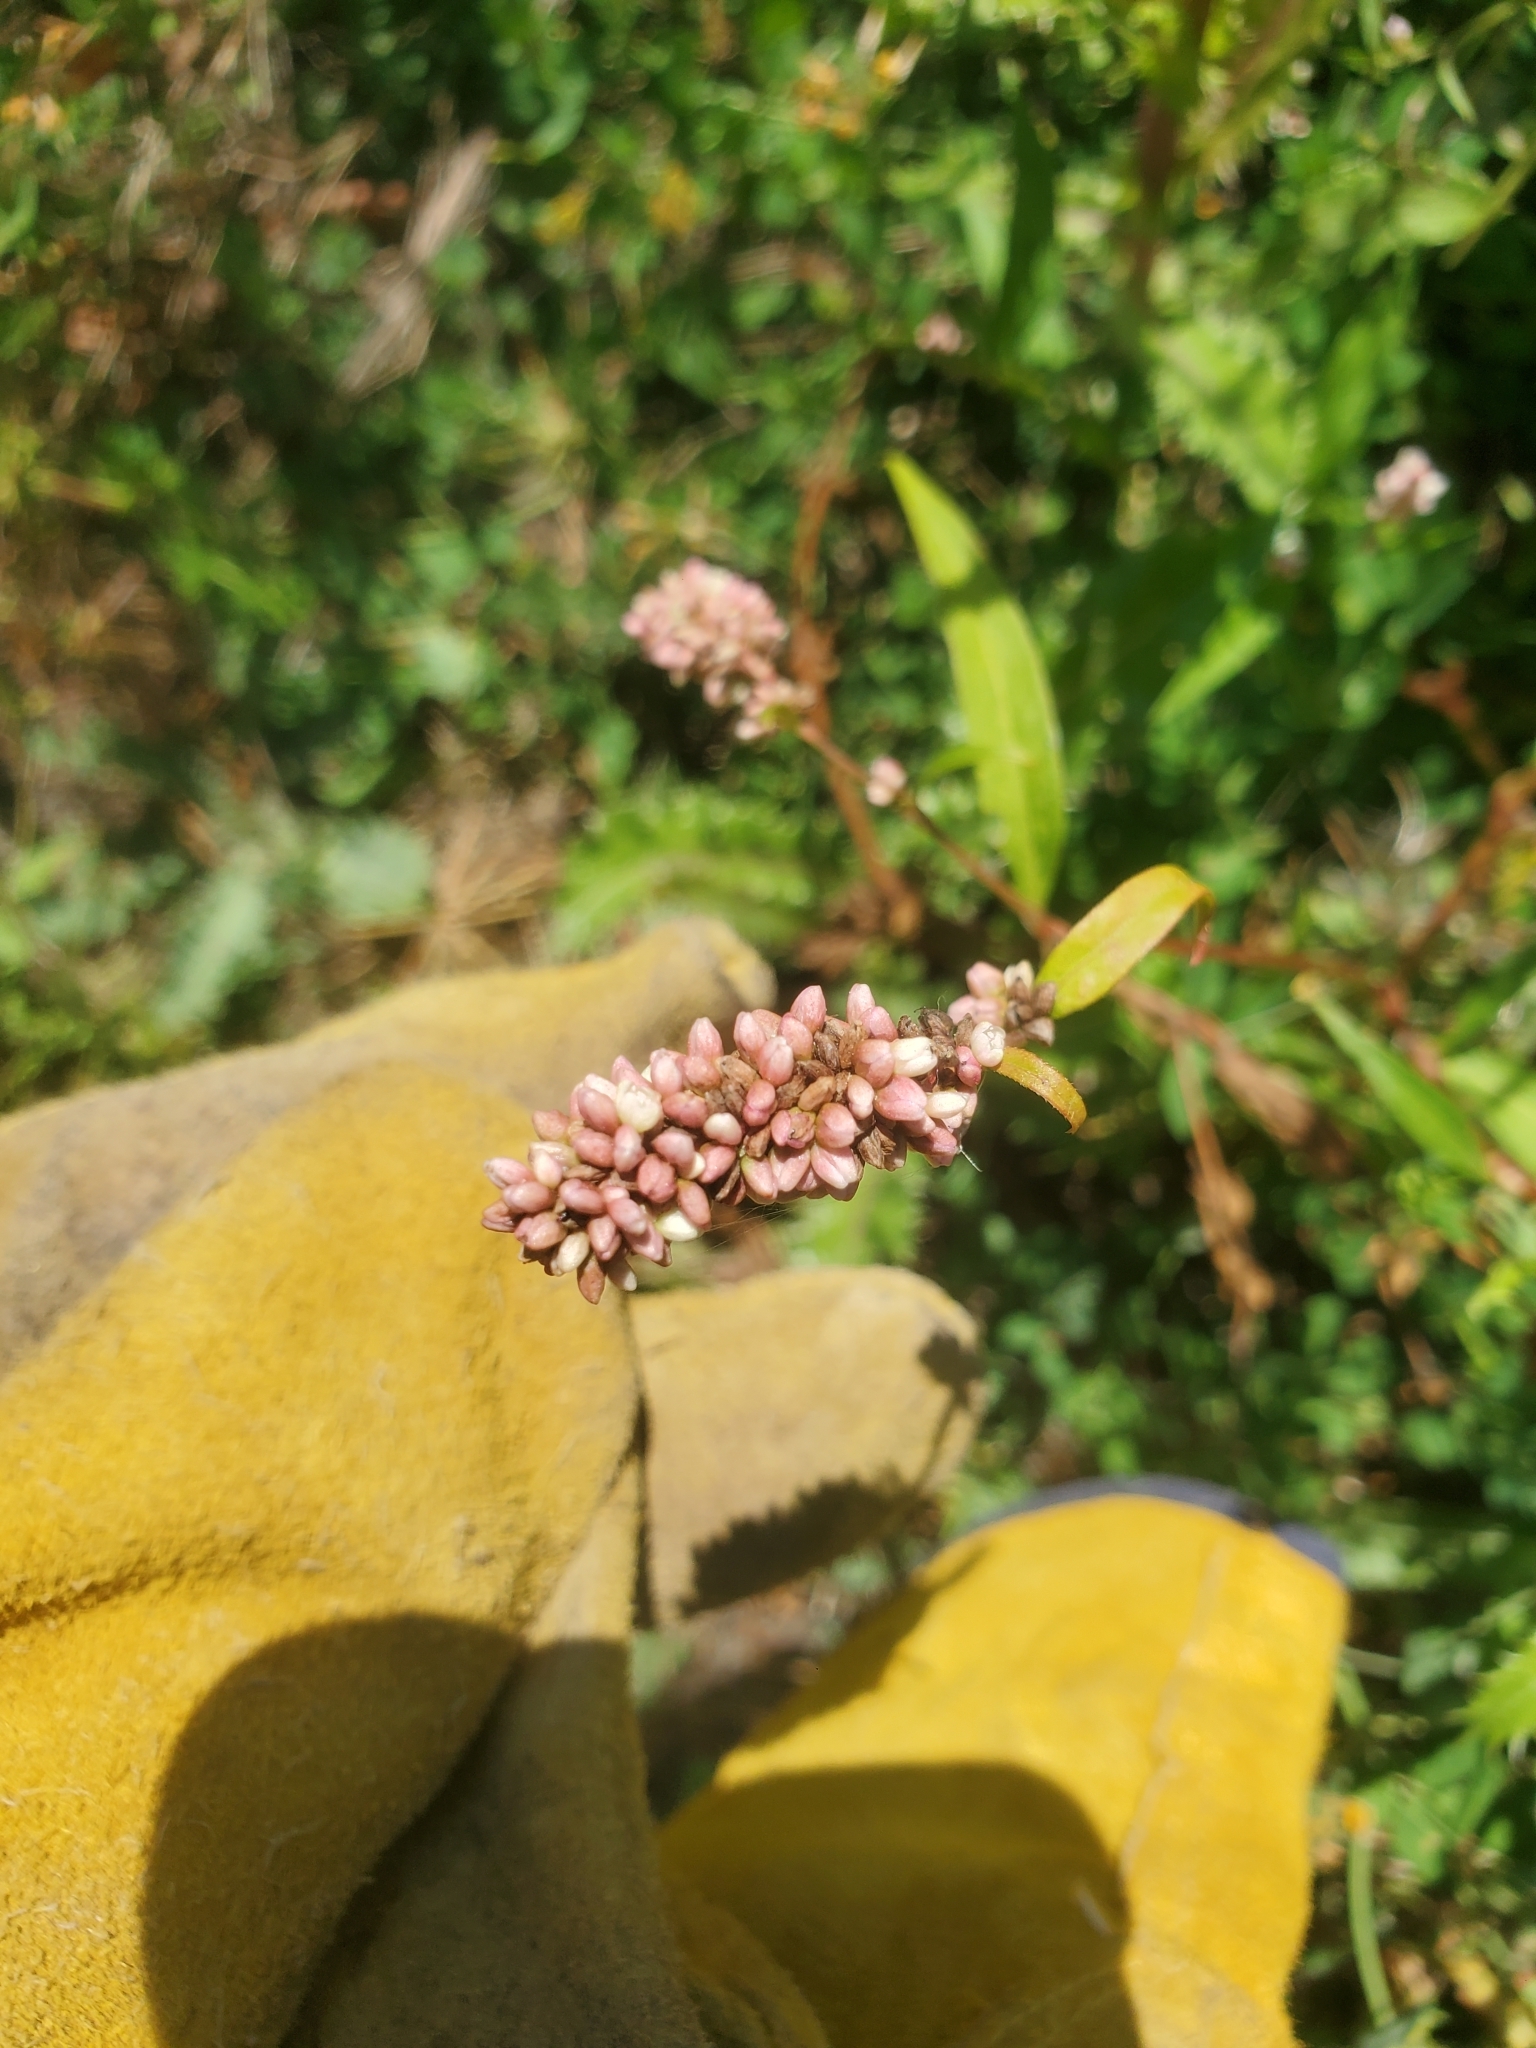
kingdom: Plantae
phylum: Tracheophyta
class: Magnoliopsida
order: Caryophyllales
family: Polygonaceae
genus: Persicaria
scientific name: Persicaria maculosa
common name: Redshank
